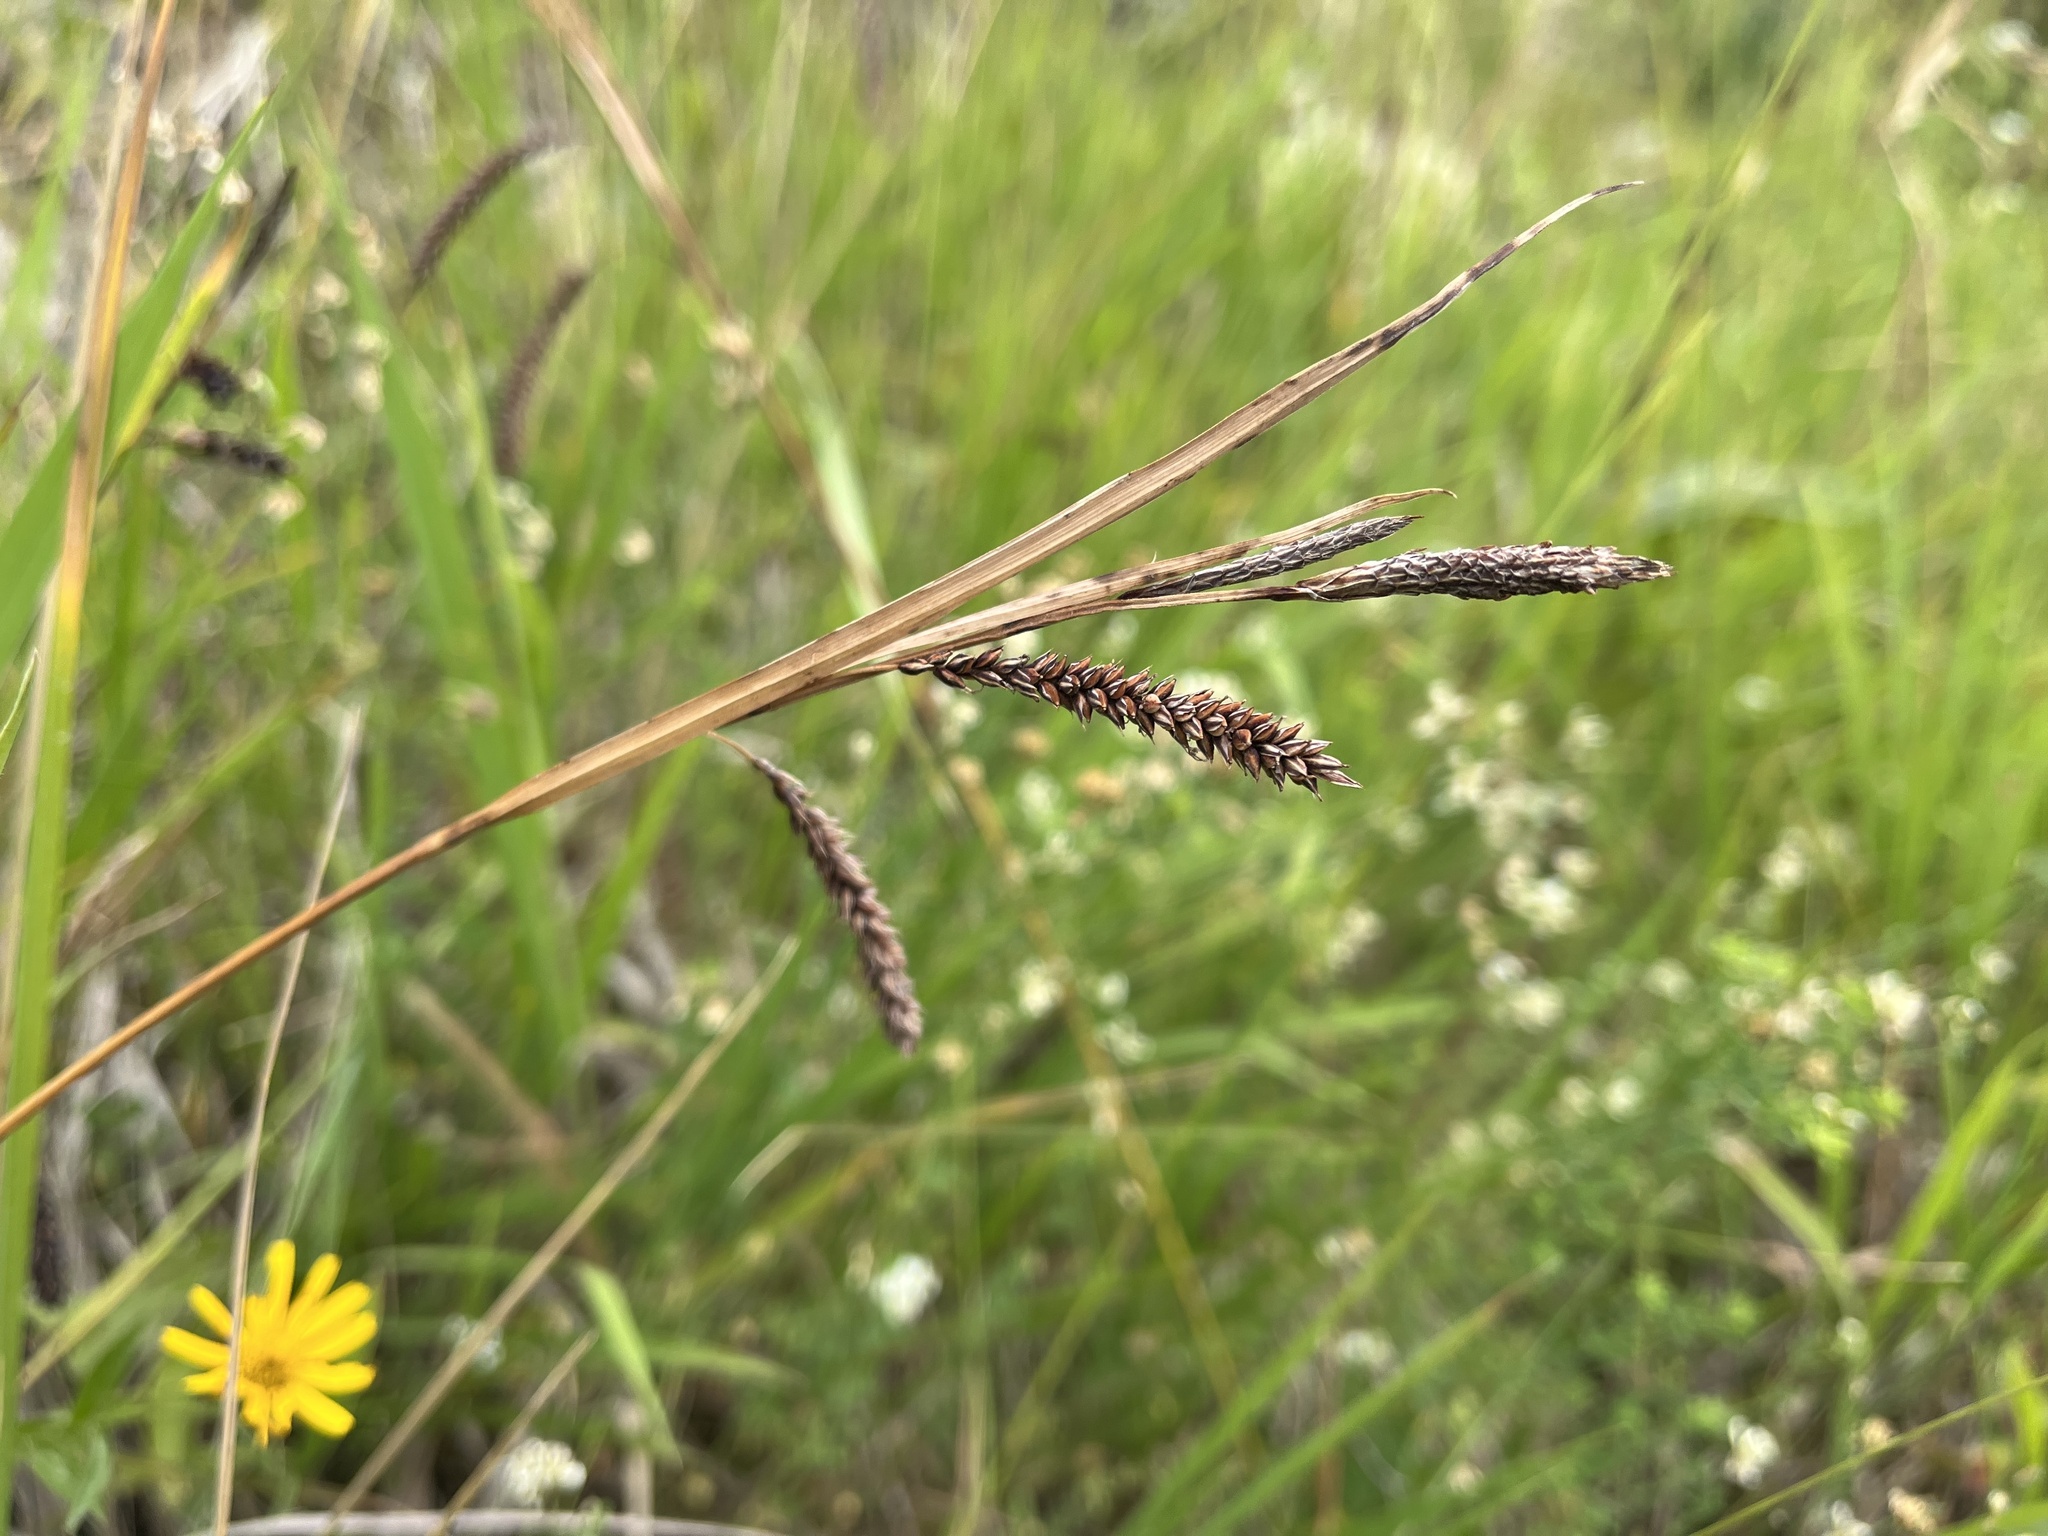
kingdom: Plantae
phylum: Tracheophyta
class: Liliopsida
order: Poales
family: Cyperaceae
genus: Carex
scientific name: Carex flacca
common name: Glaucous sedge
